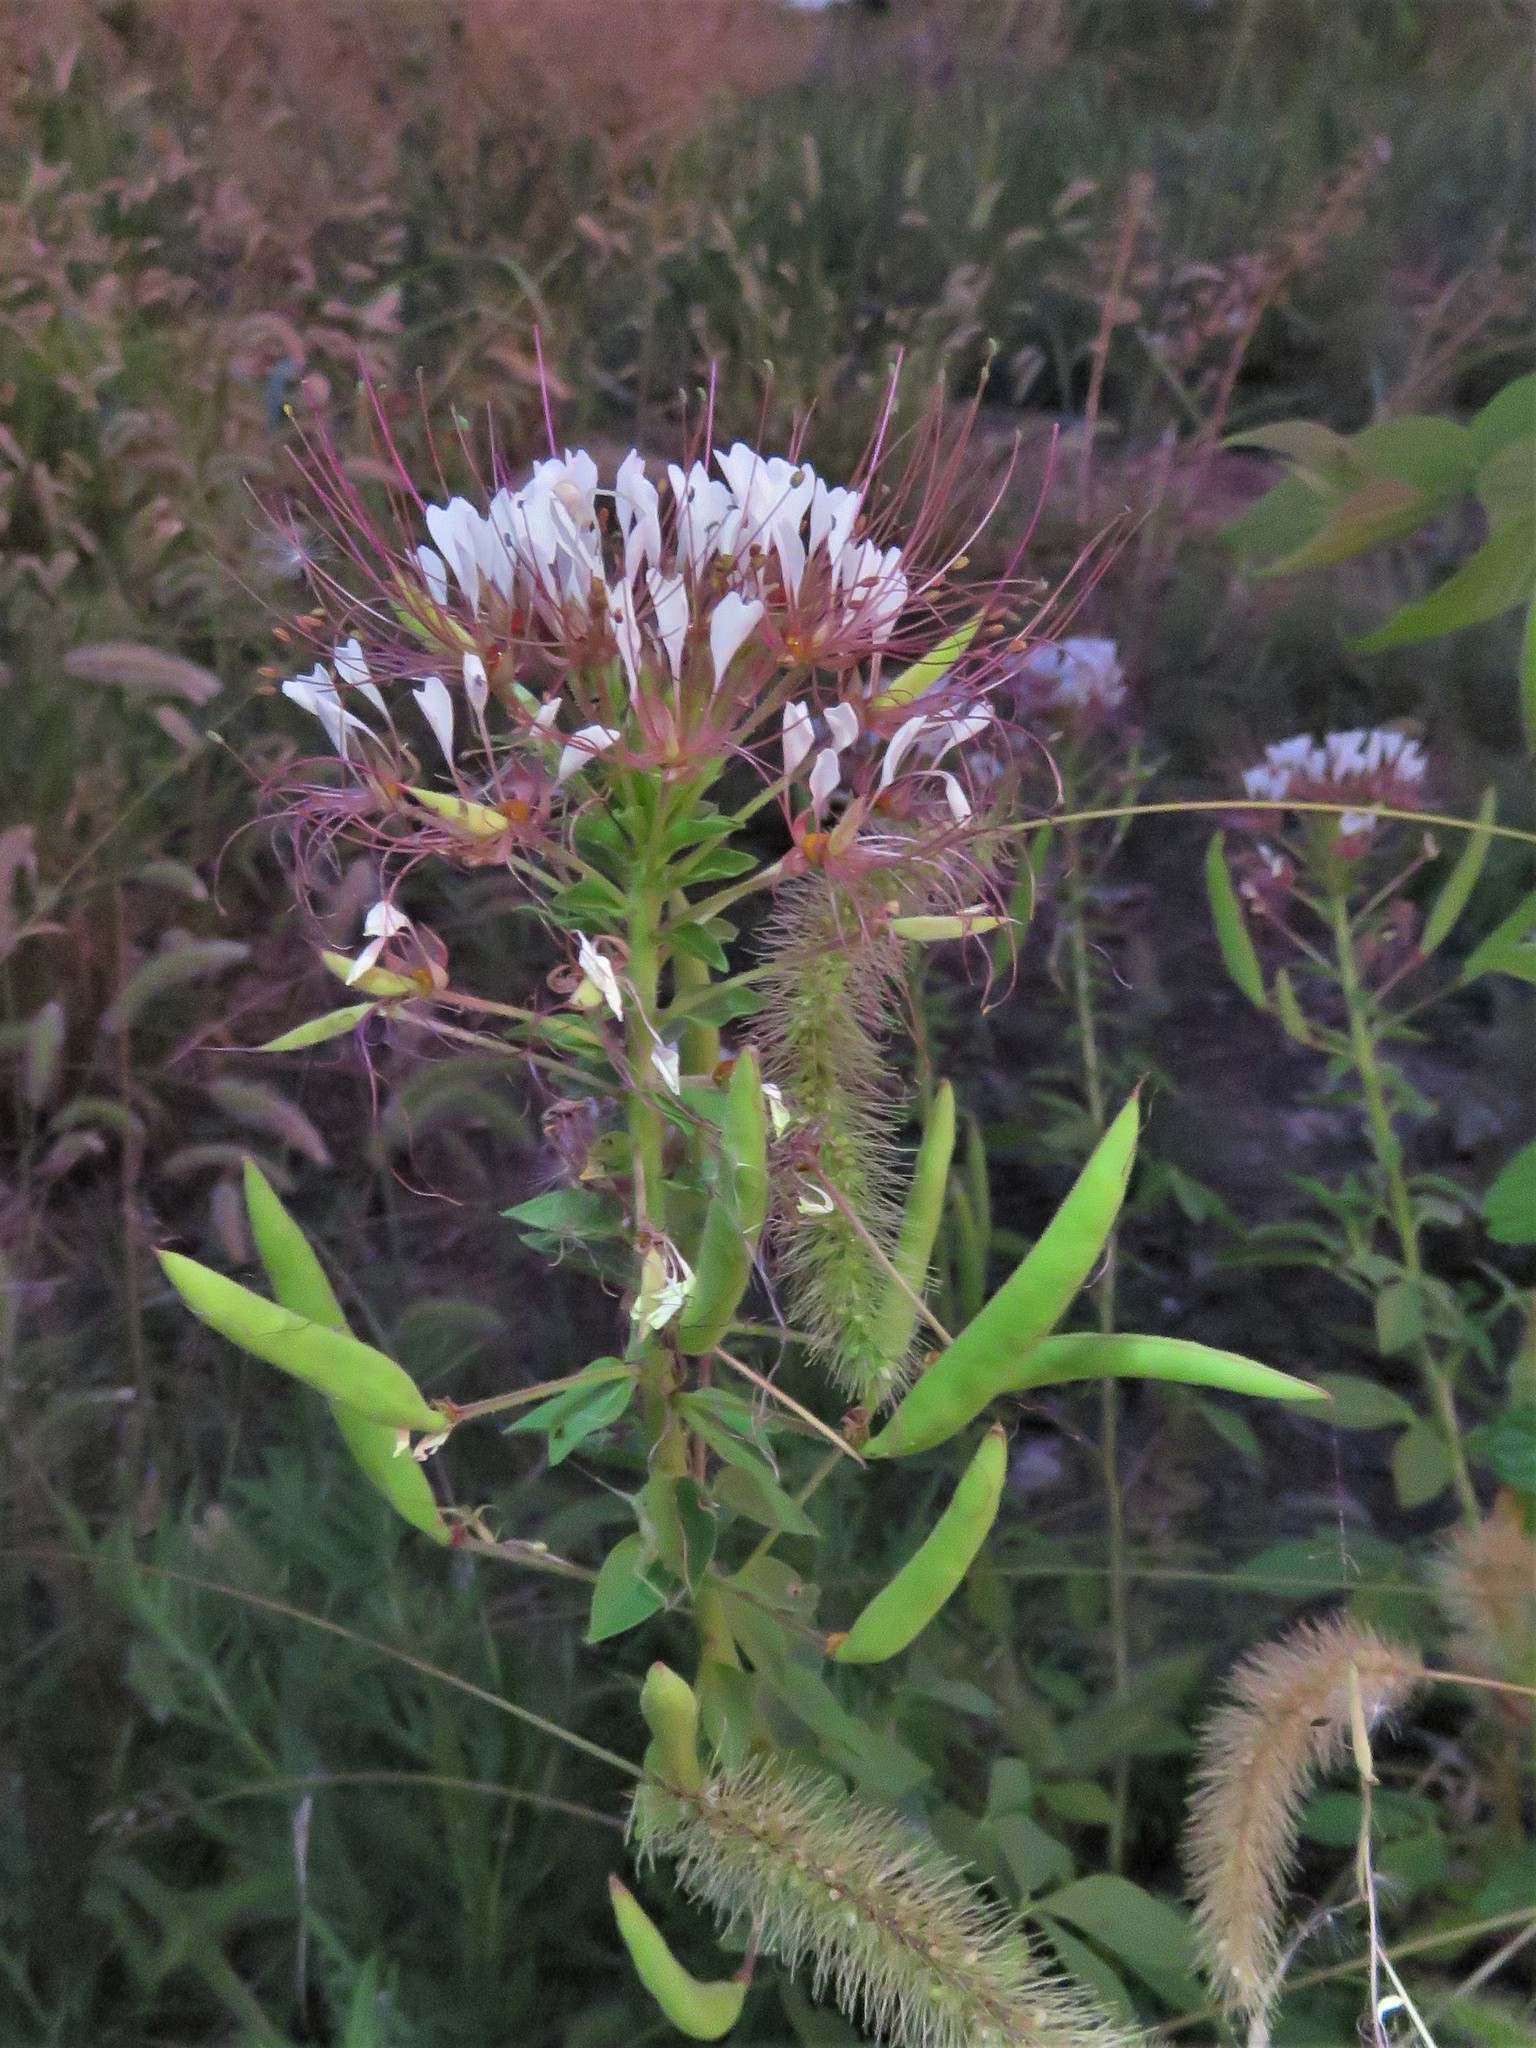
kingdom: Plantae
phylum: Tracheophyta
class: Magnoliopsida
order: Brassicales
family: Cleomaceae
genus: Polanisia
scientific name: Polanisia dodecandra
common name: Clammyweed
